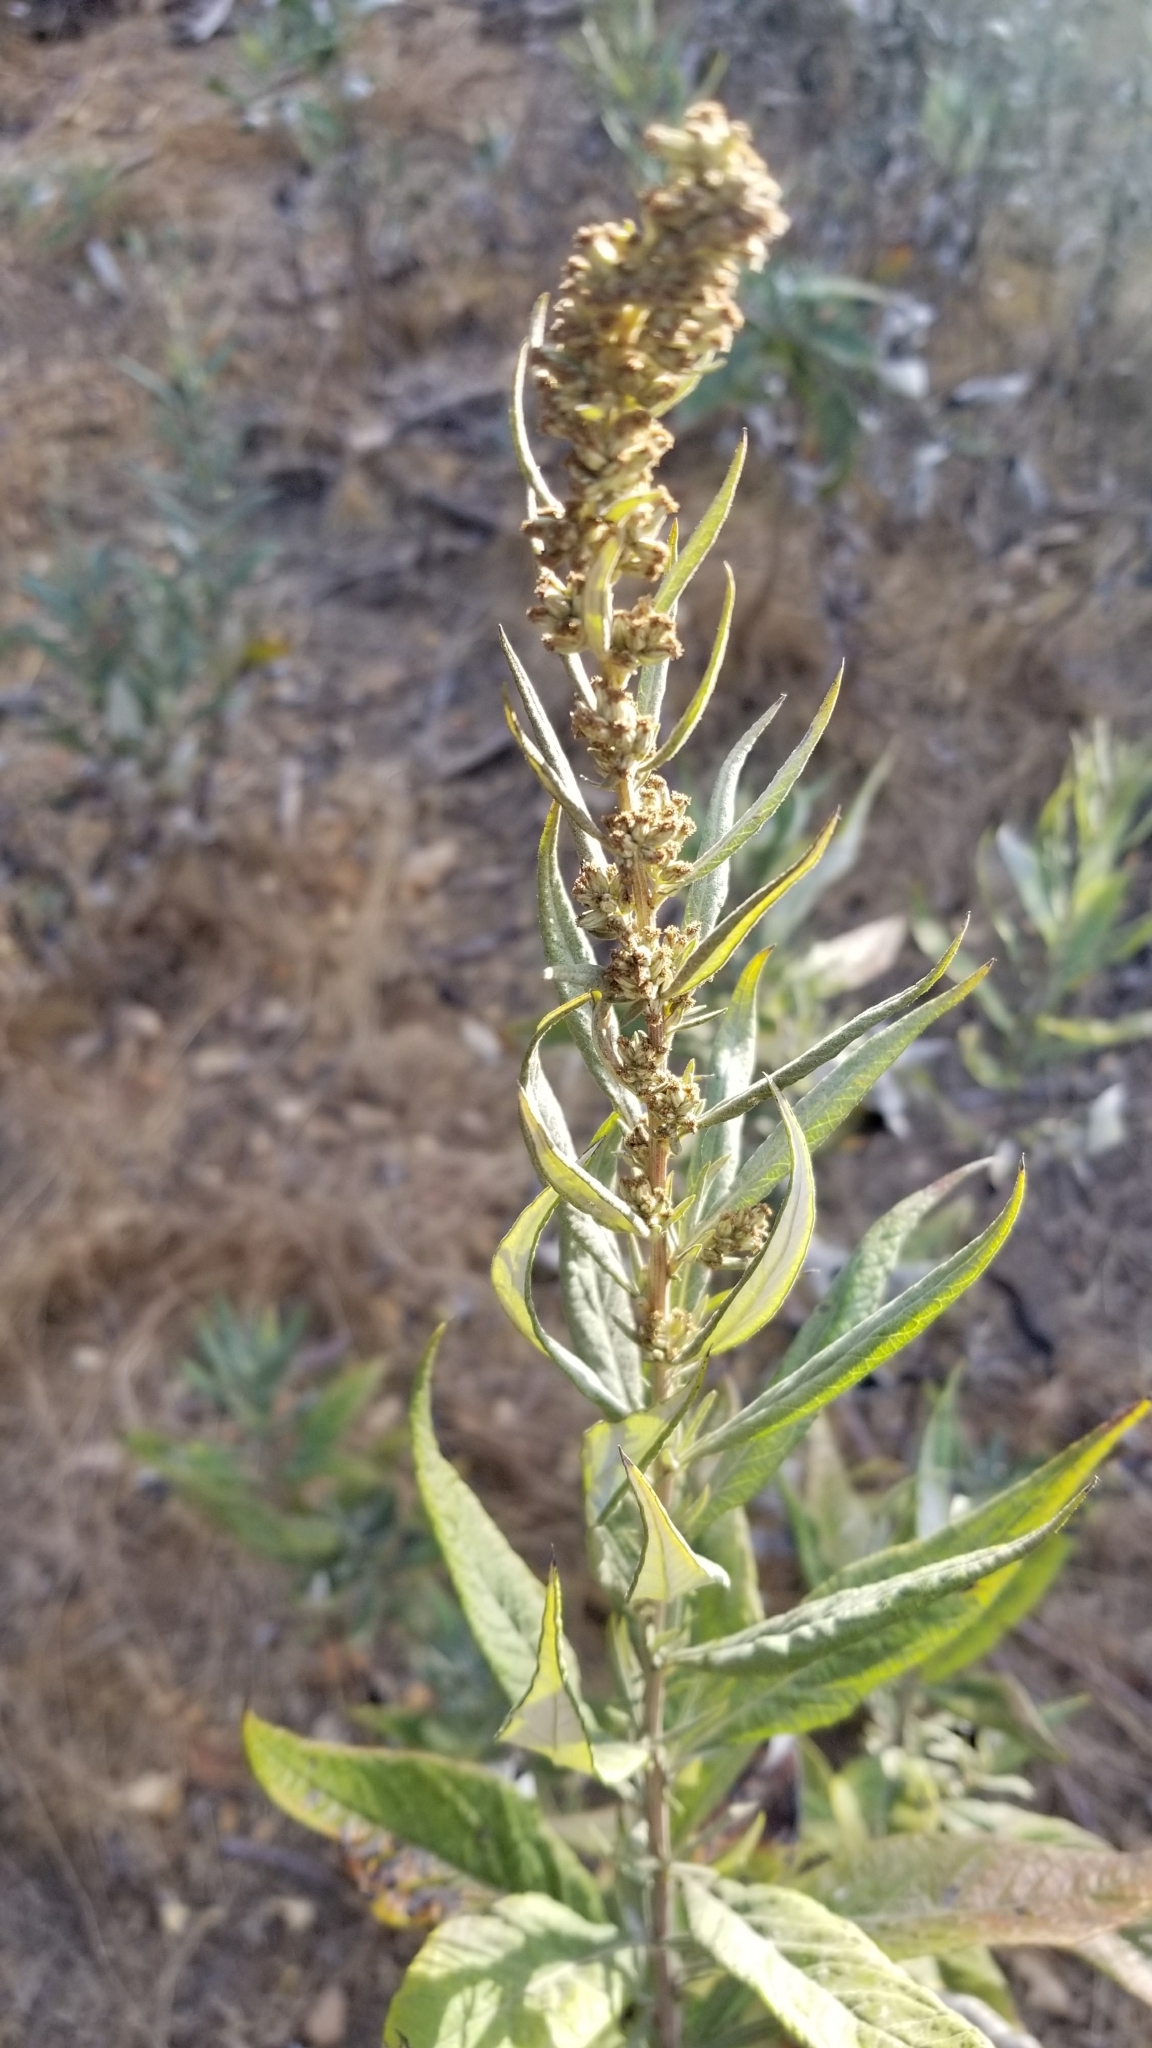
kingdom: Plantae
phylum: Tracheophyta
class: Magnoliopsida
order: Asterales
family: Asteraceae
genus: Artemisia
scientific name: Artemisia douglasiana
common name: Northwest mugwort
